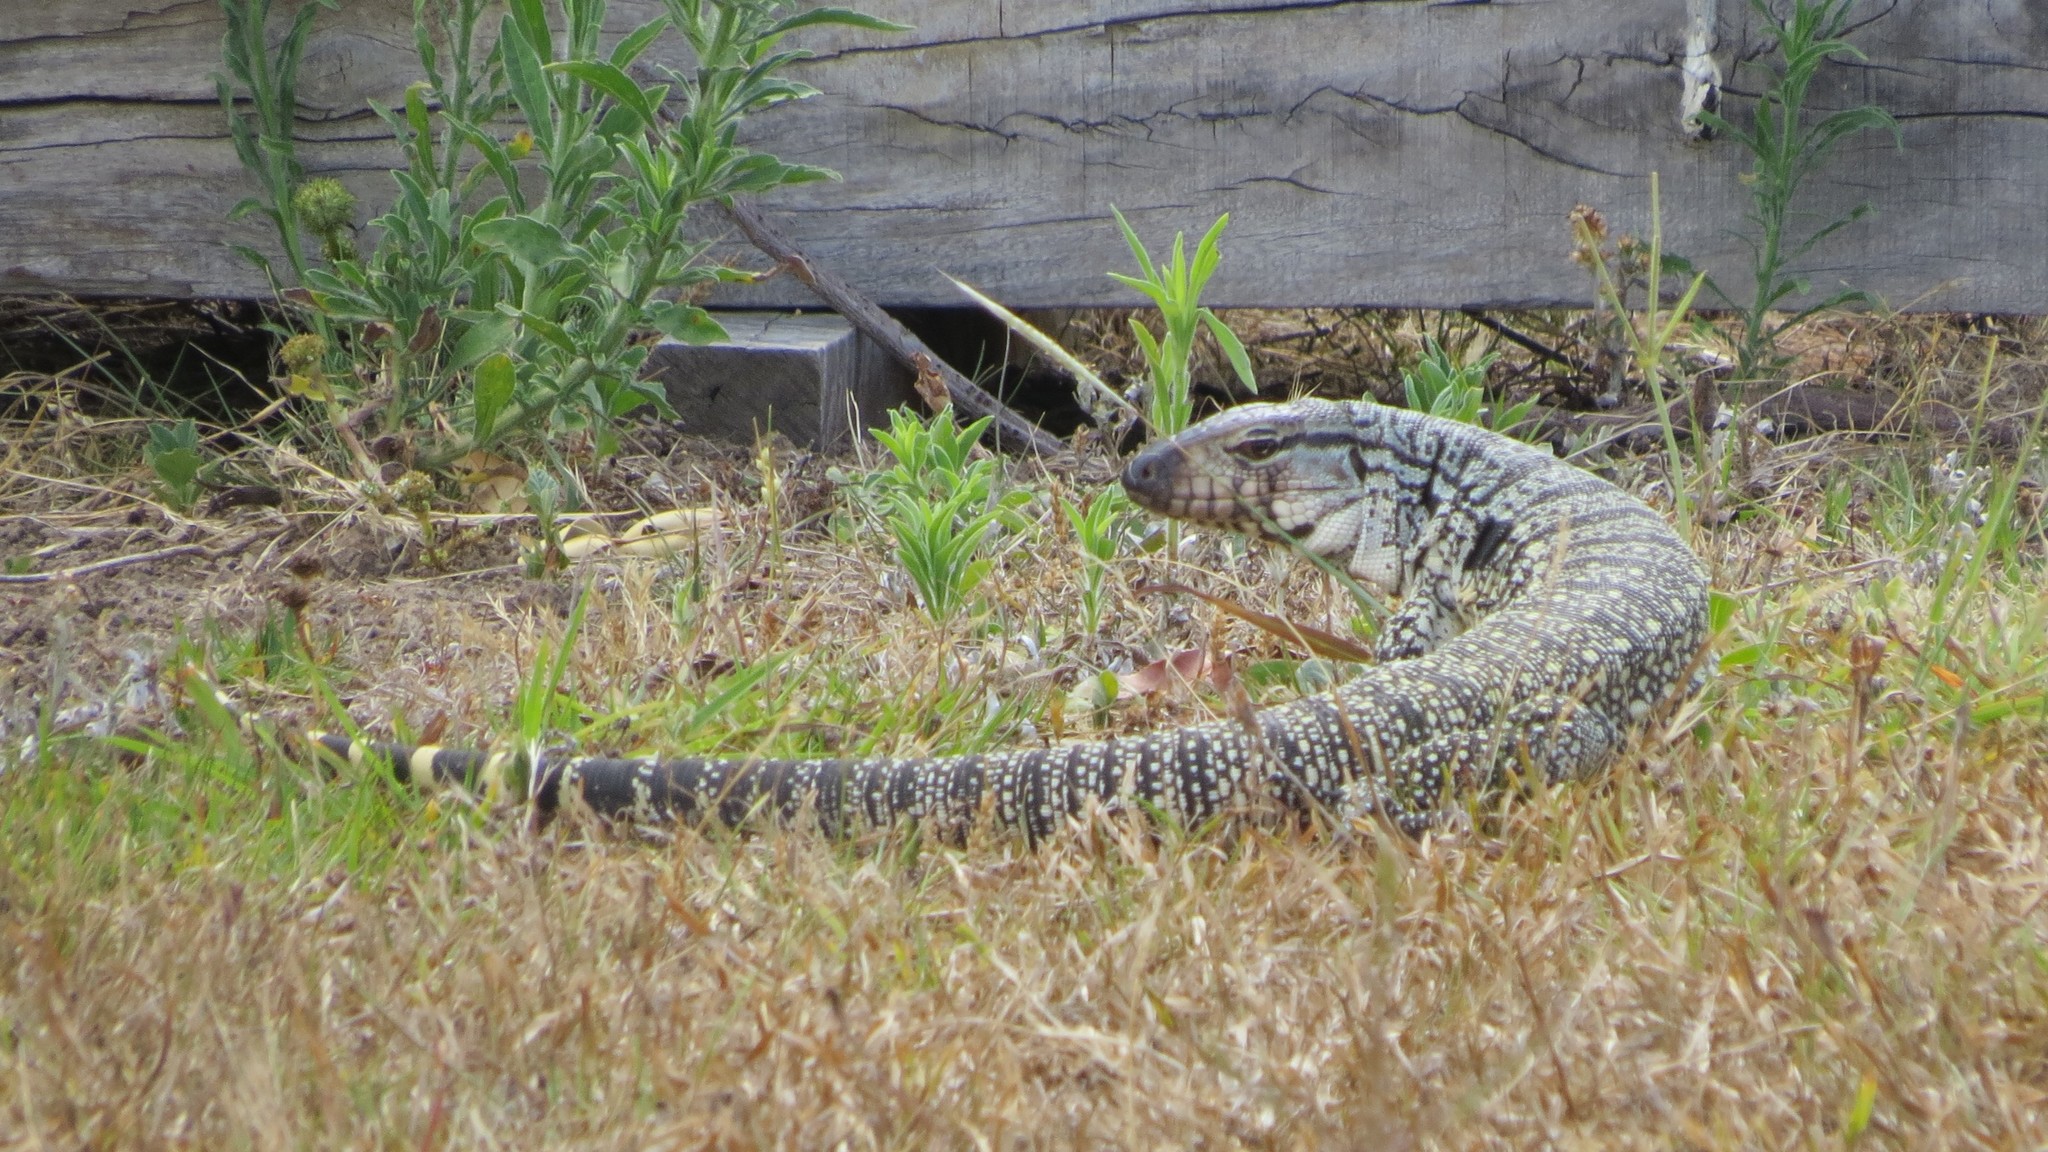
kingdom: Animalia
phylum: Chordata
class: Squamata
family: Teiidae
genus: Salvator
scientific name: Salvator merianae
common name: Argentine black and white tegu
